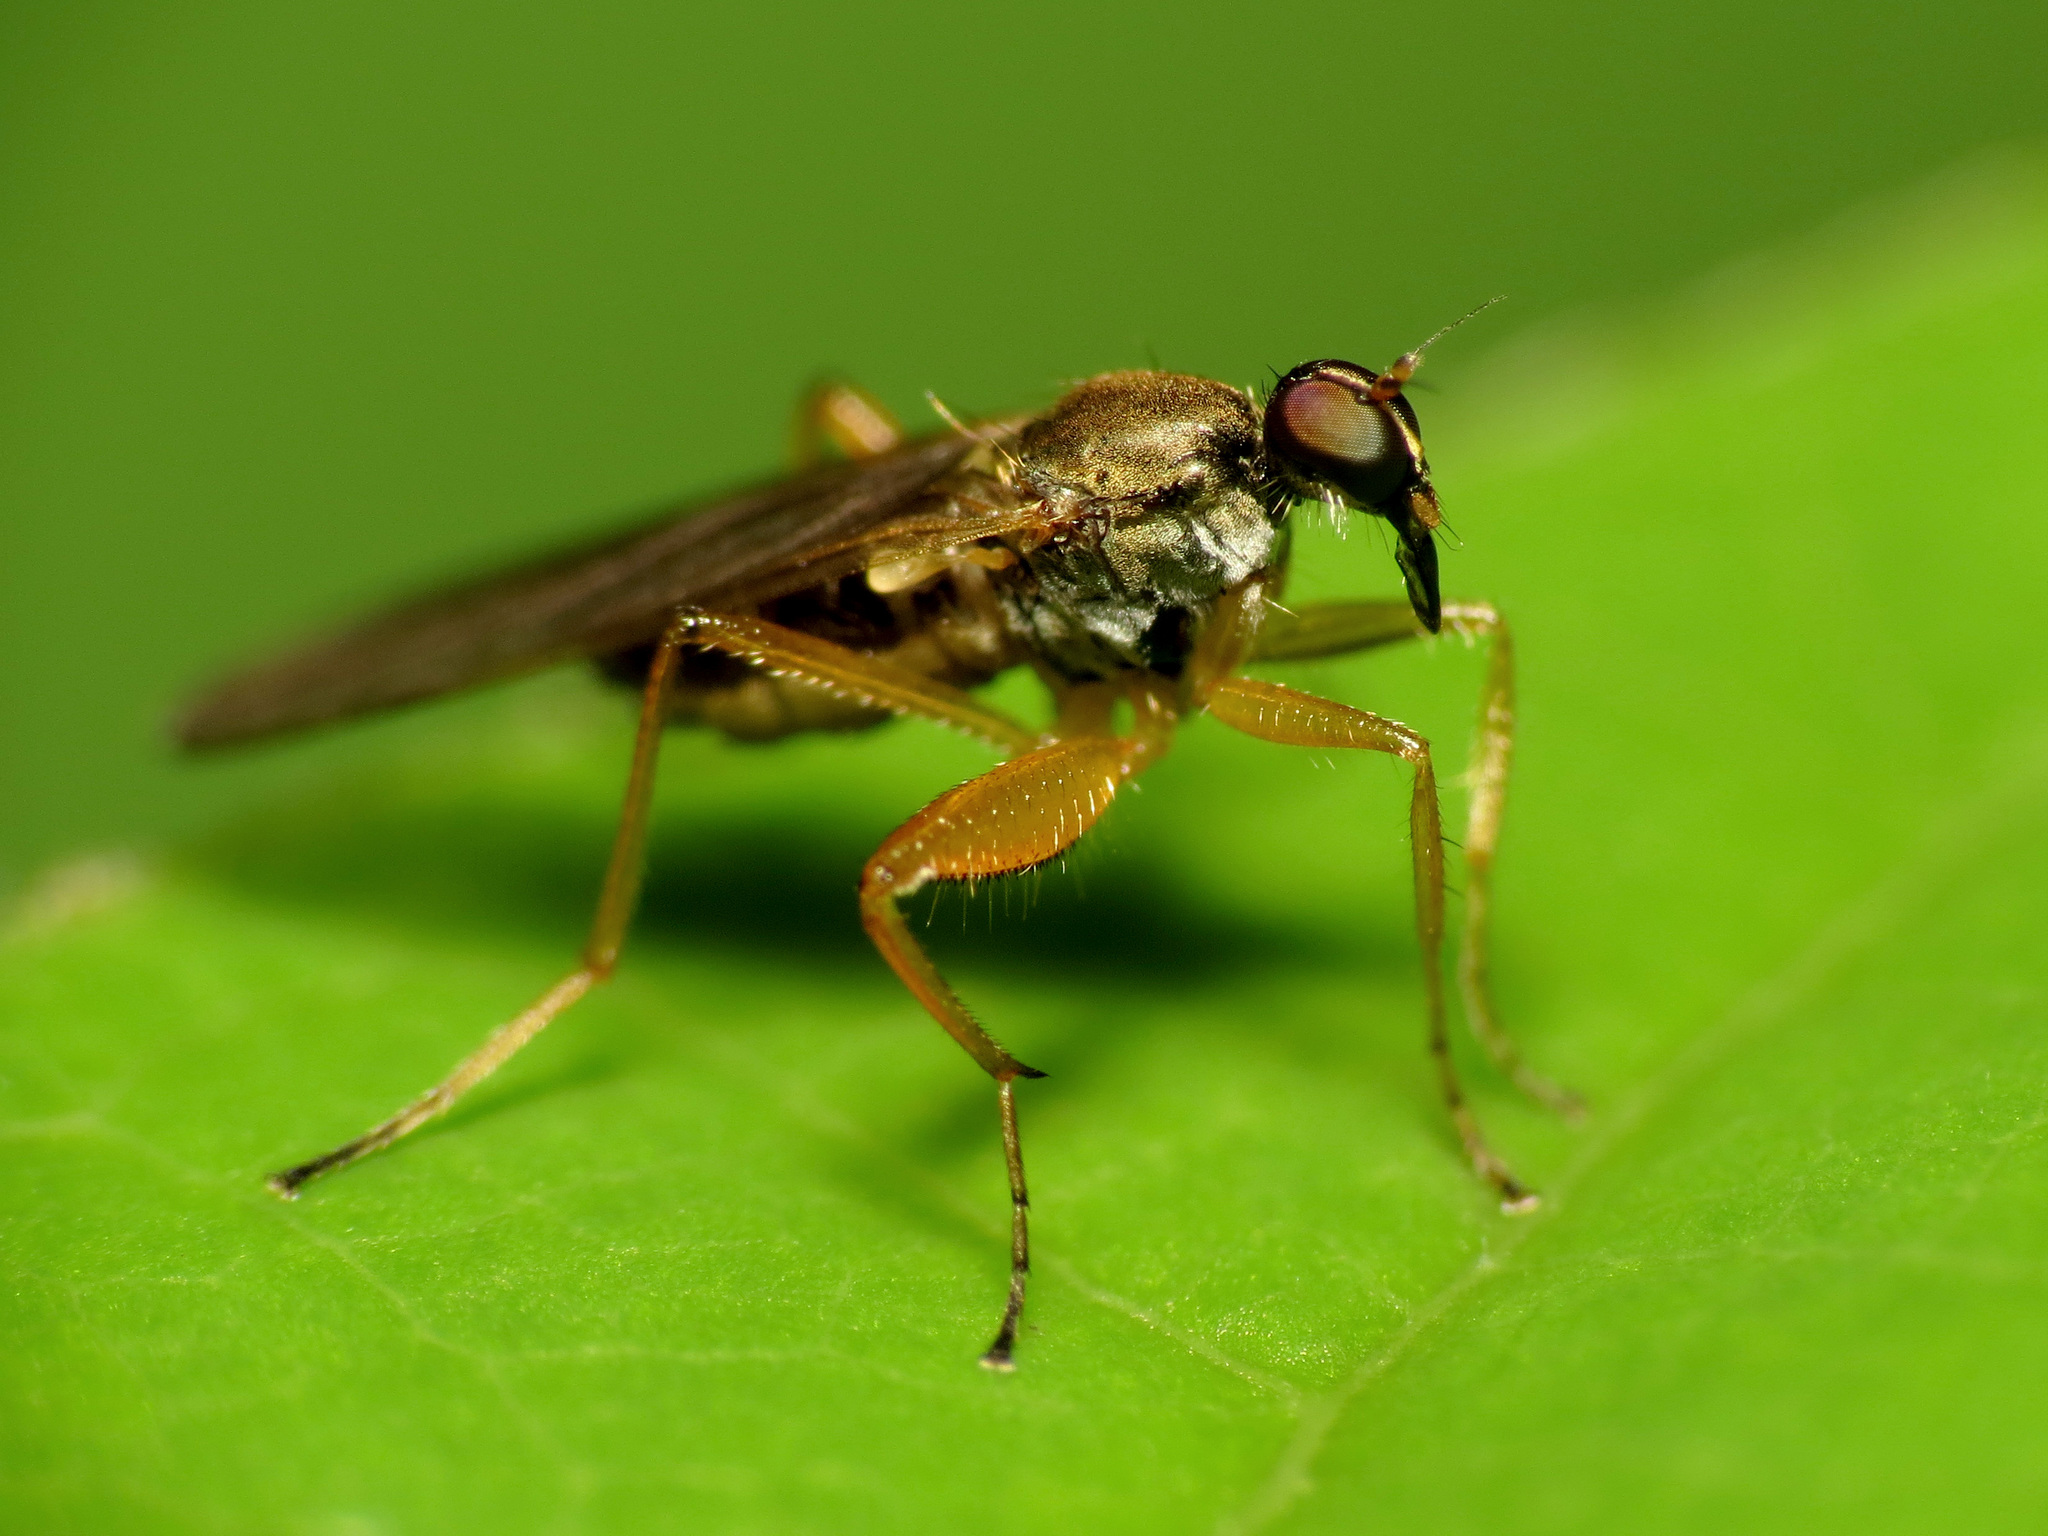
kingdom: Animalia
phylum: Arthropoda
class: Insecta
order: Diptera
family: Hybotidae
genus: Platypalpus
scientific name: Platypalpus discifer
